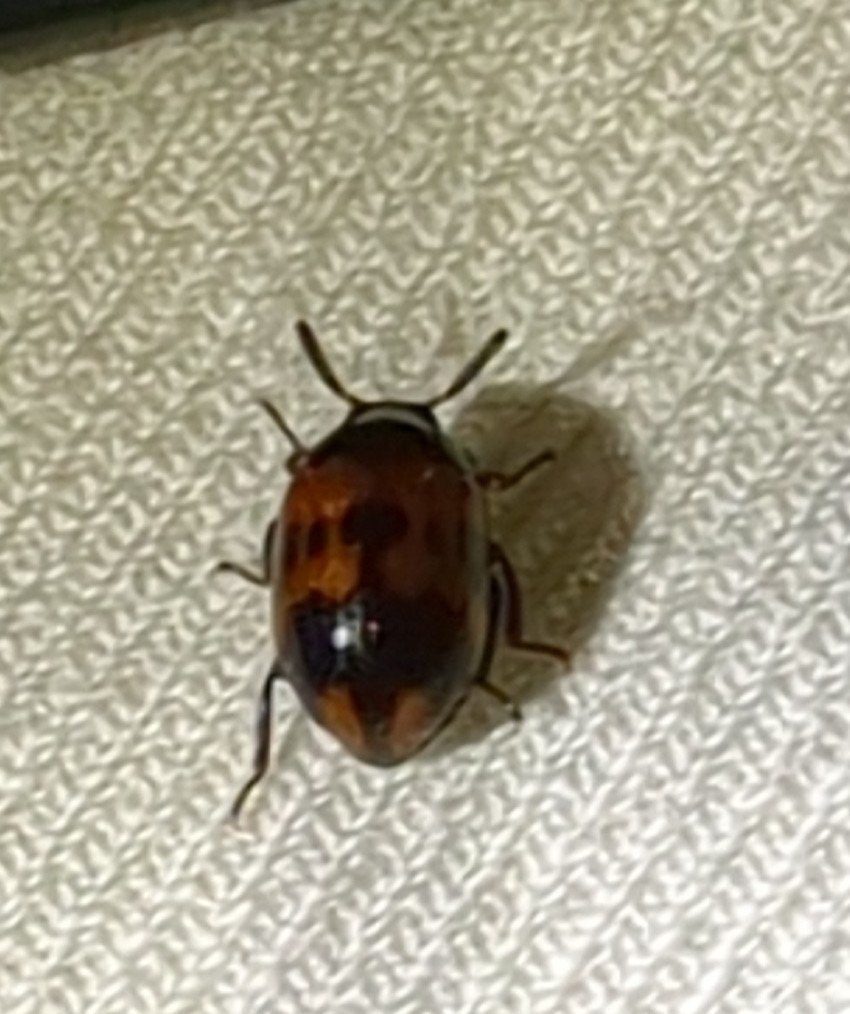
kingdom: Animalia
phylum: Arthropoda
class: Insecta
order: Coleoptera
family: Tenebrionidae
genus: Diaperis
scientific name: Diaperis nigronotata
